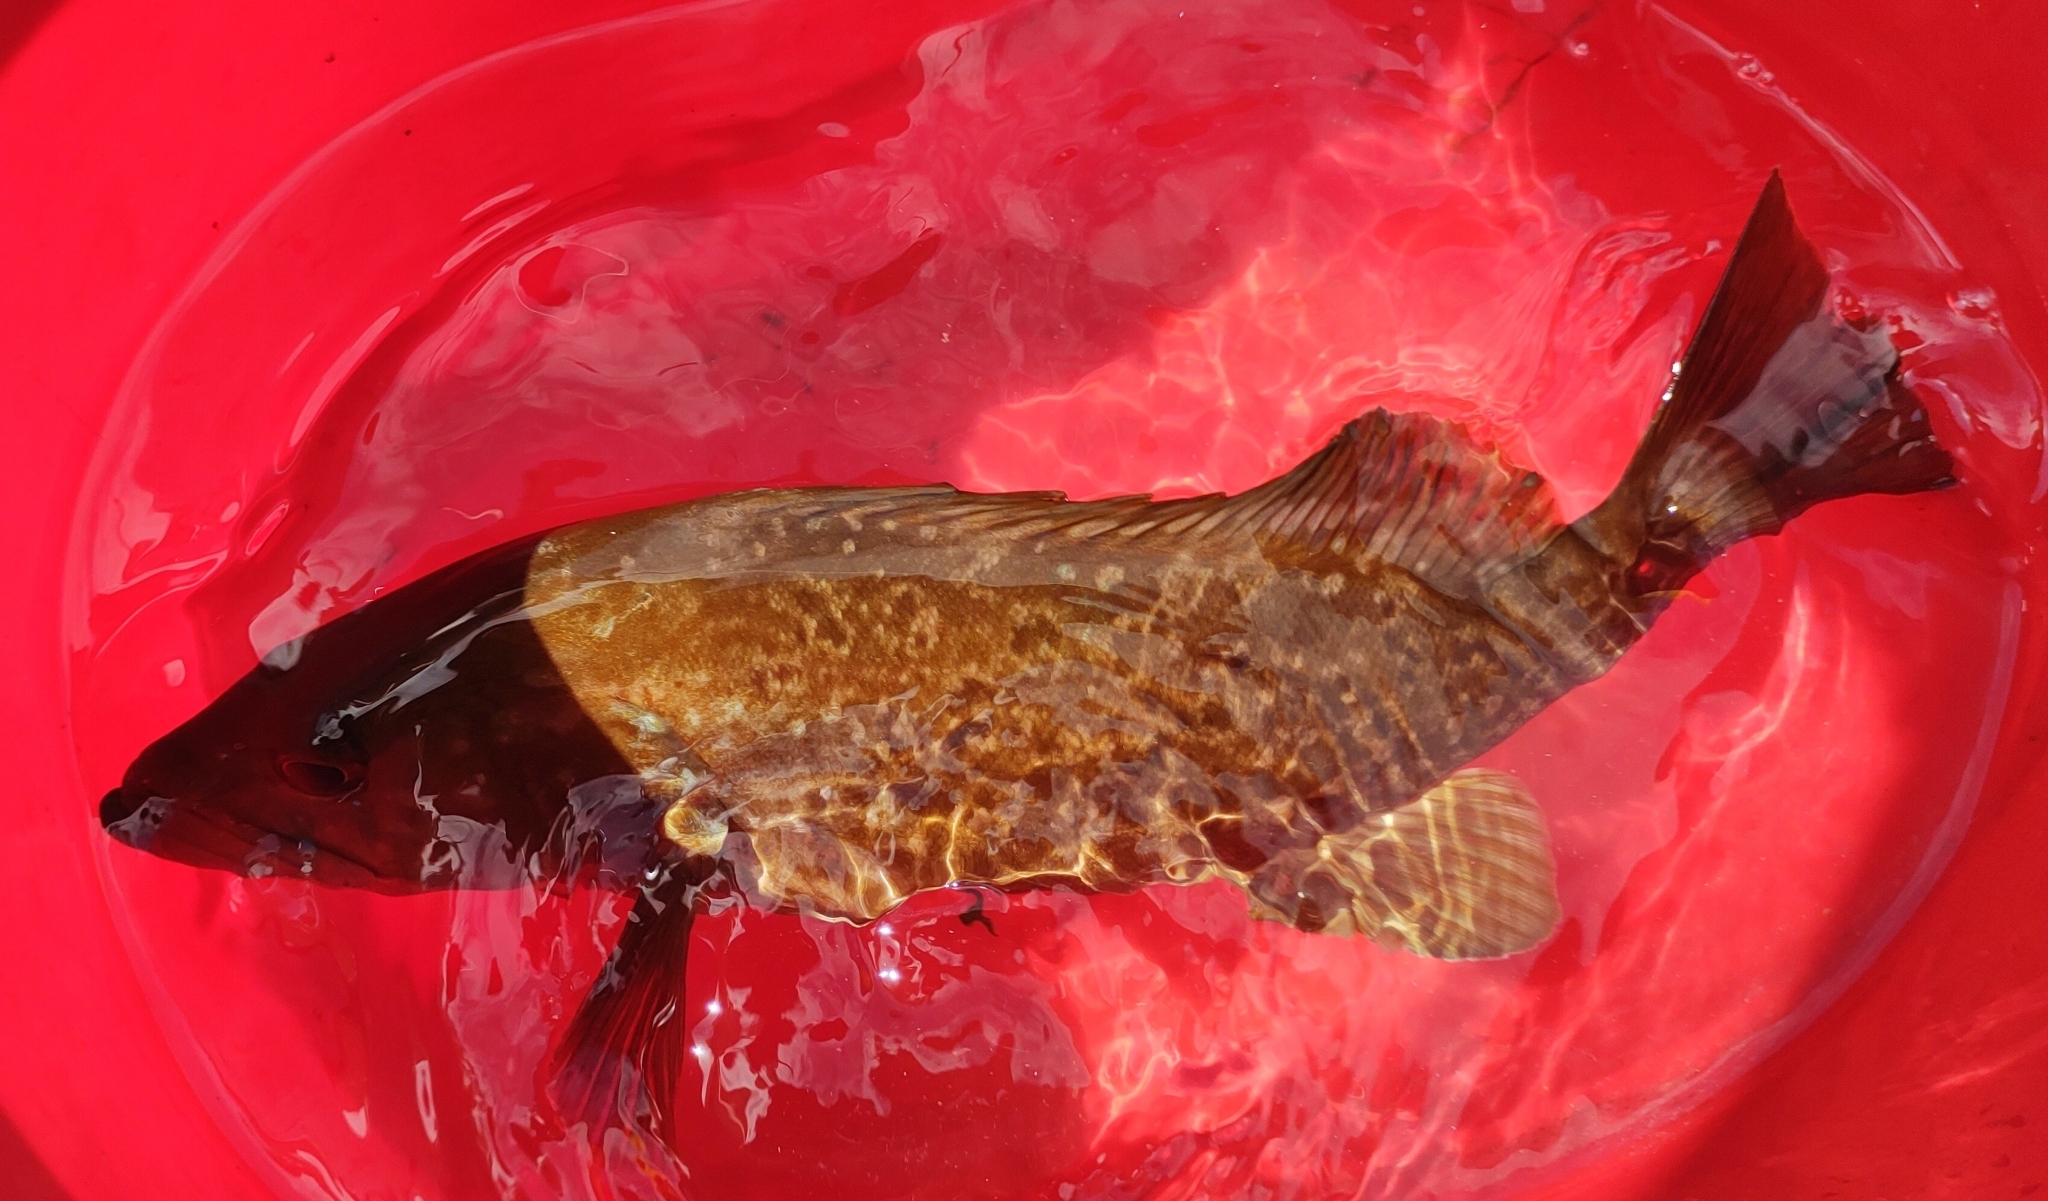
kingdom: Animalia
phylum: Chordata
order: Perciformes
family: Serranidae
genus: Mycteroperca
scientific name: Mycteroperca fusca
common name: Island grouper
